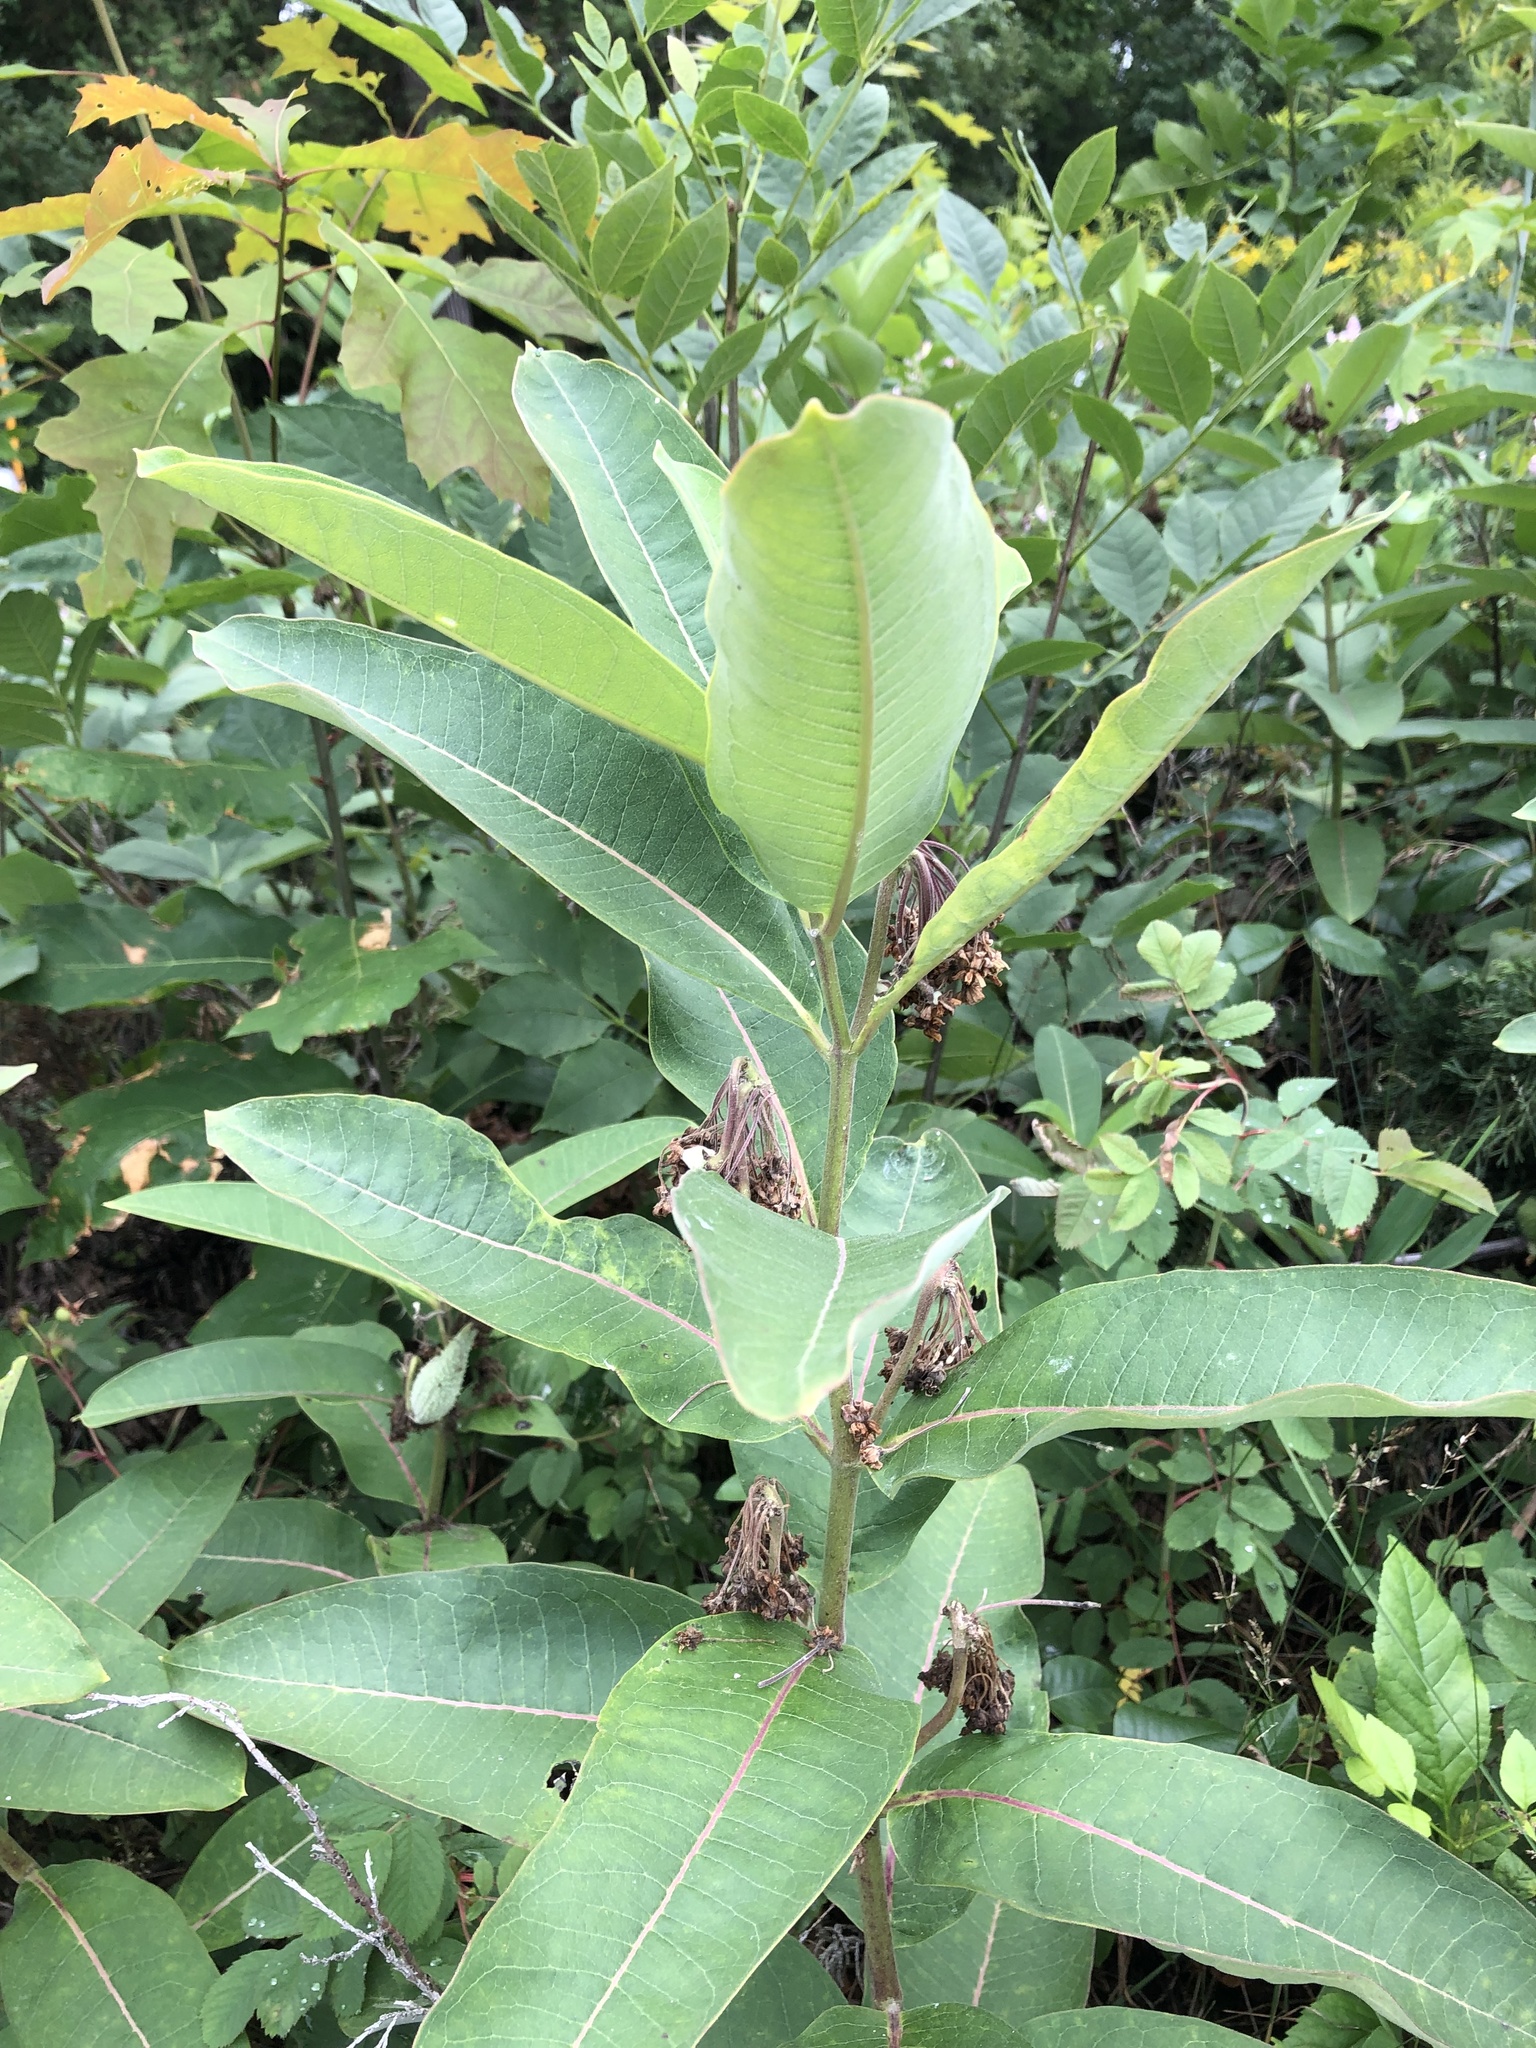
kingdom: Plantae
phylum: Tracheophyta
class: Magnoliopsida
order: Gentianales
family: Apocynaceae
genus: Asclepias
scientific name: Asclepias syriaca
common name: Common milkweed
